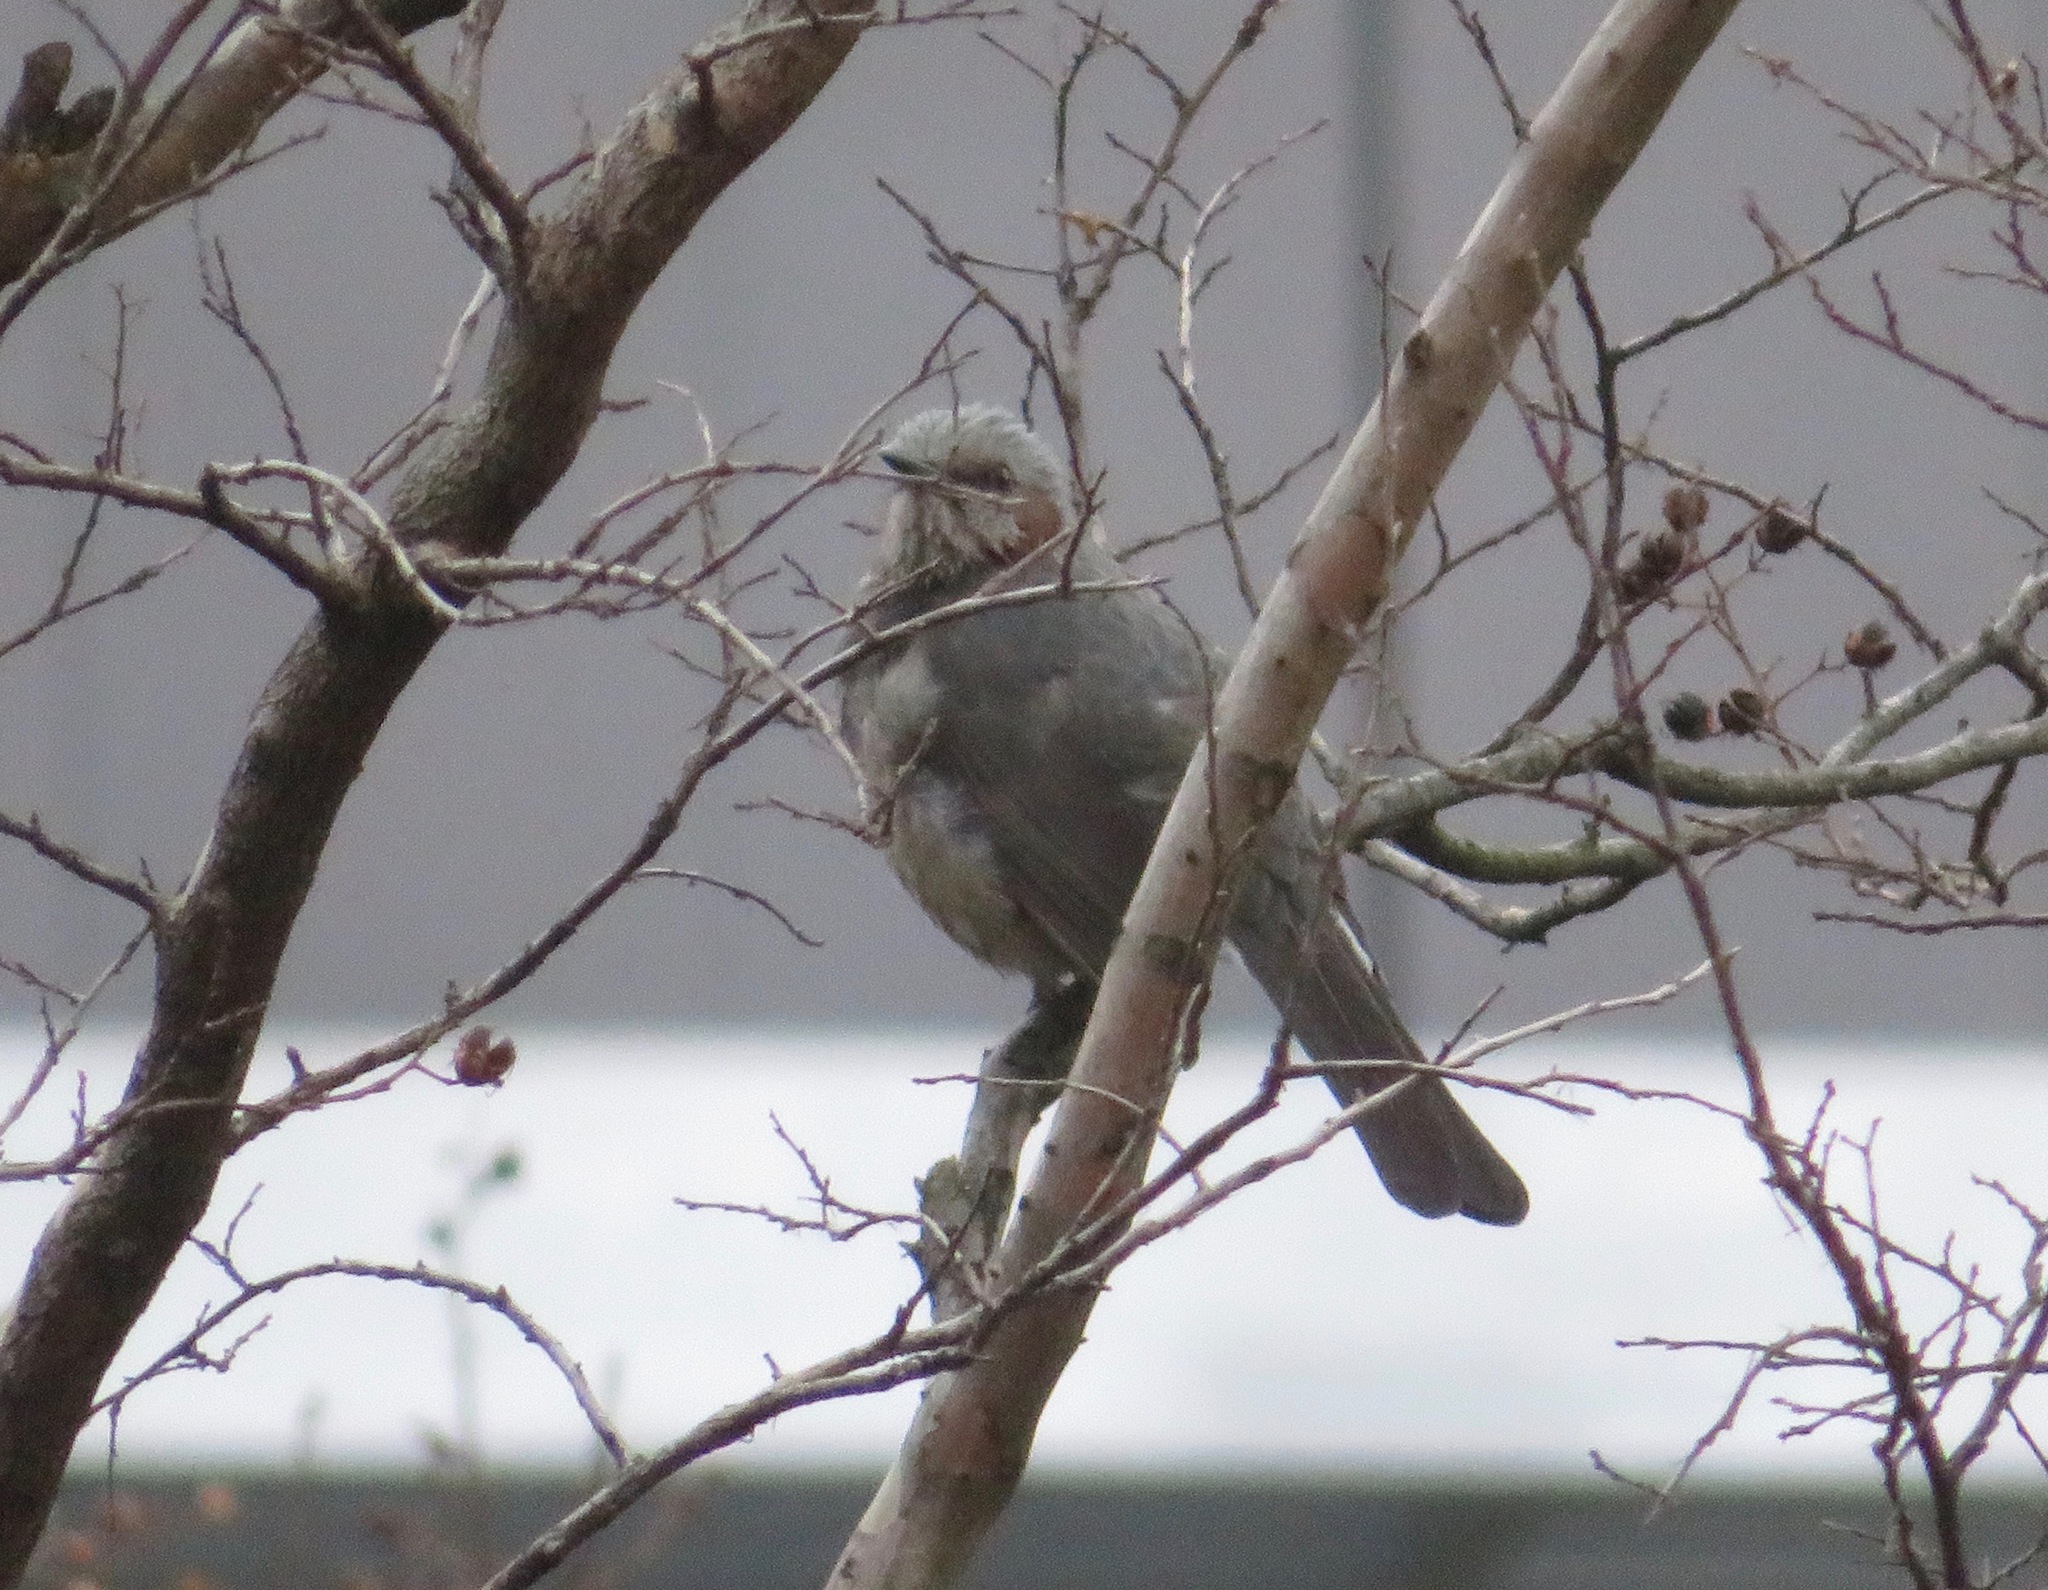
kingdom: Animalia
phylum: Chordata
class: Aves
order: Passeriformes
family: Pycnonotidae
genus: Hypsipetes
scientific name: Hypsipetes amaurotis
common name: Brown-eared bulbul
